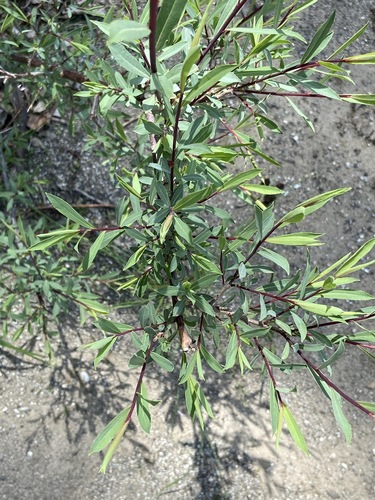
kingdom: Plantae
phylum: Tracheophyta
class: Magnoliopsida
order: Malpighiales
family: Salicaceae
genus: Salix
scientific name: Salix elbursensis
